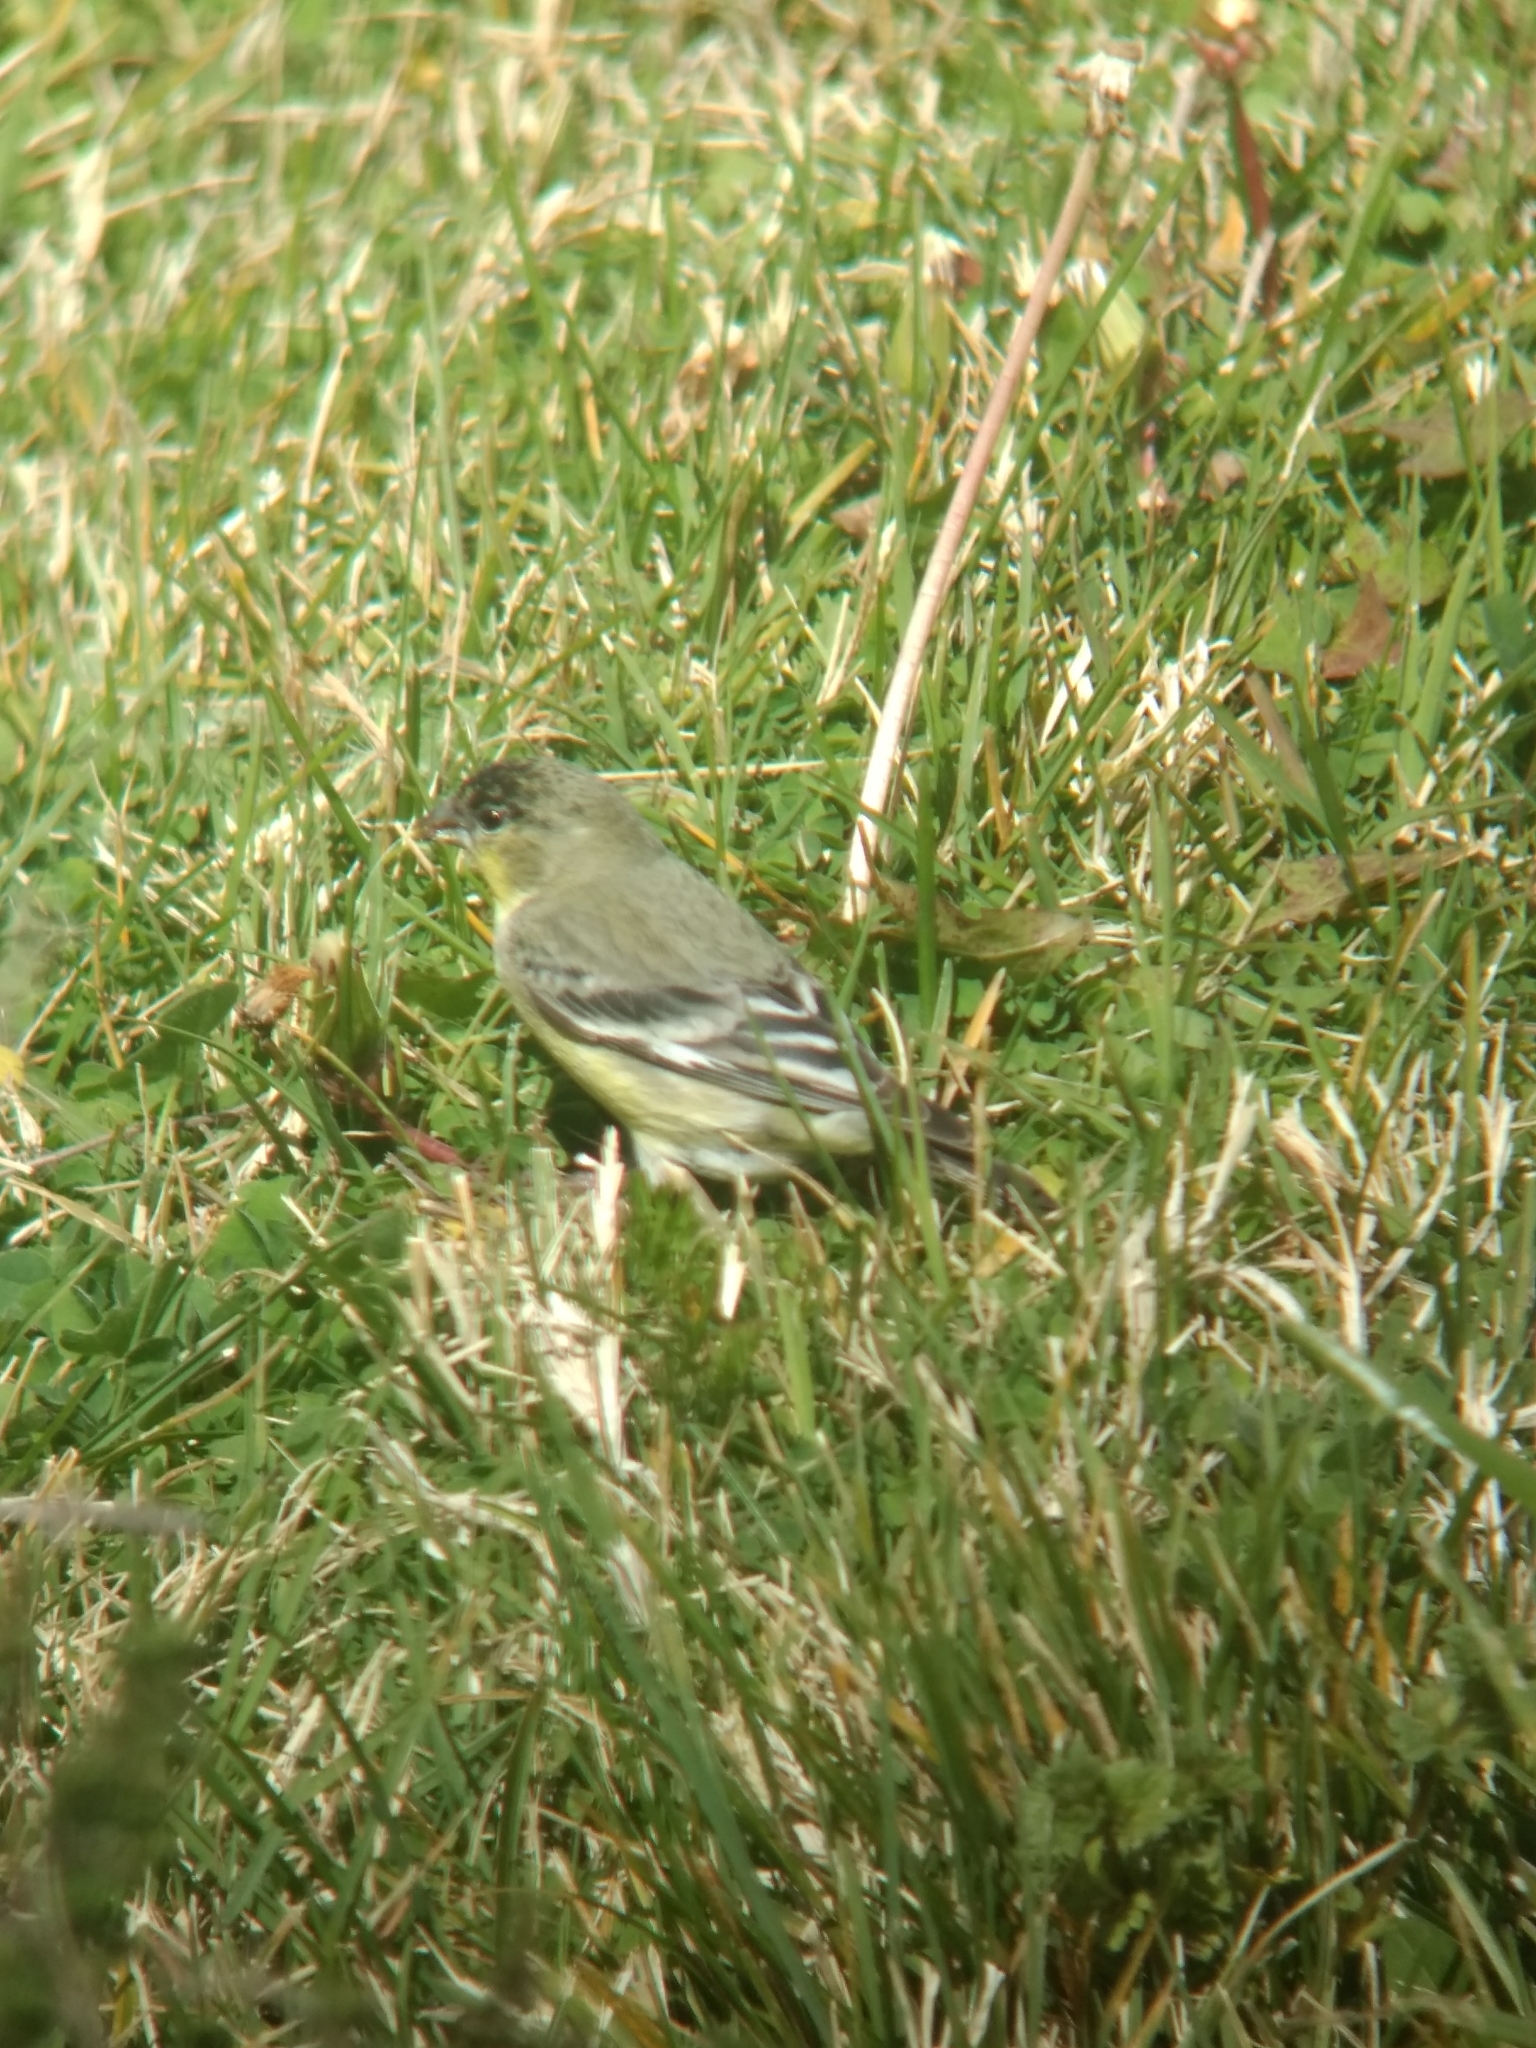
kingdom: Animalia
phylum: Chordata
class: Aves
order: Passeriformes
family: Fringillidae
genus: Spinus
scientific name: Spinus psaltria
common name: Lesser goldfinch
